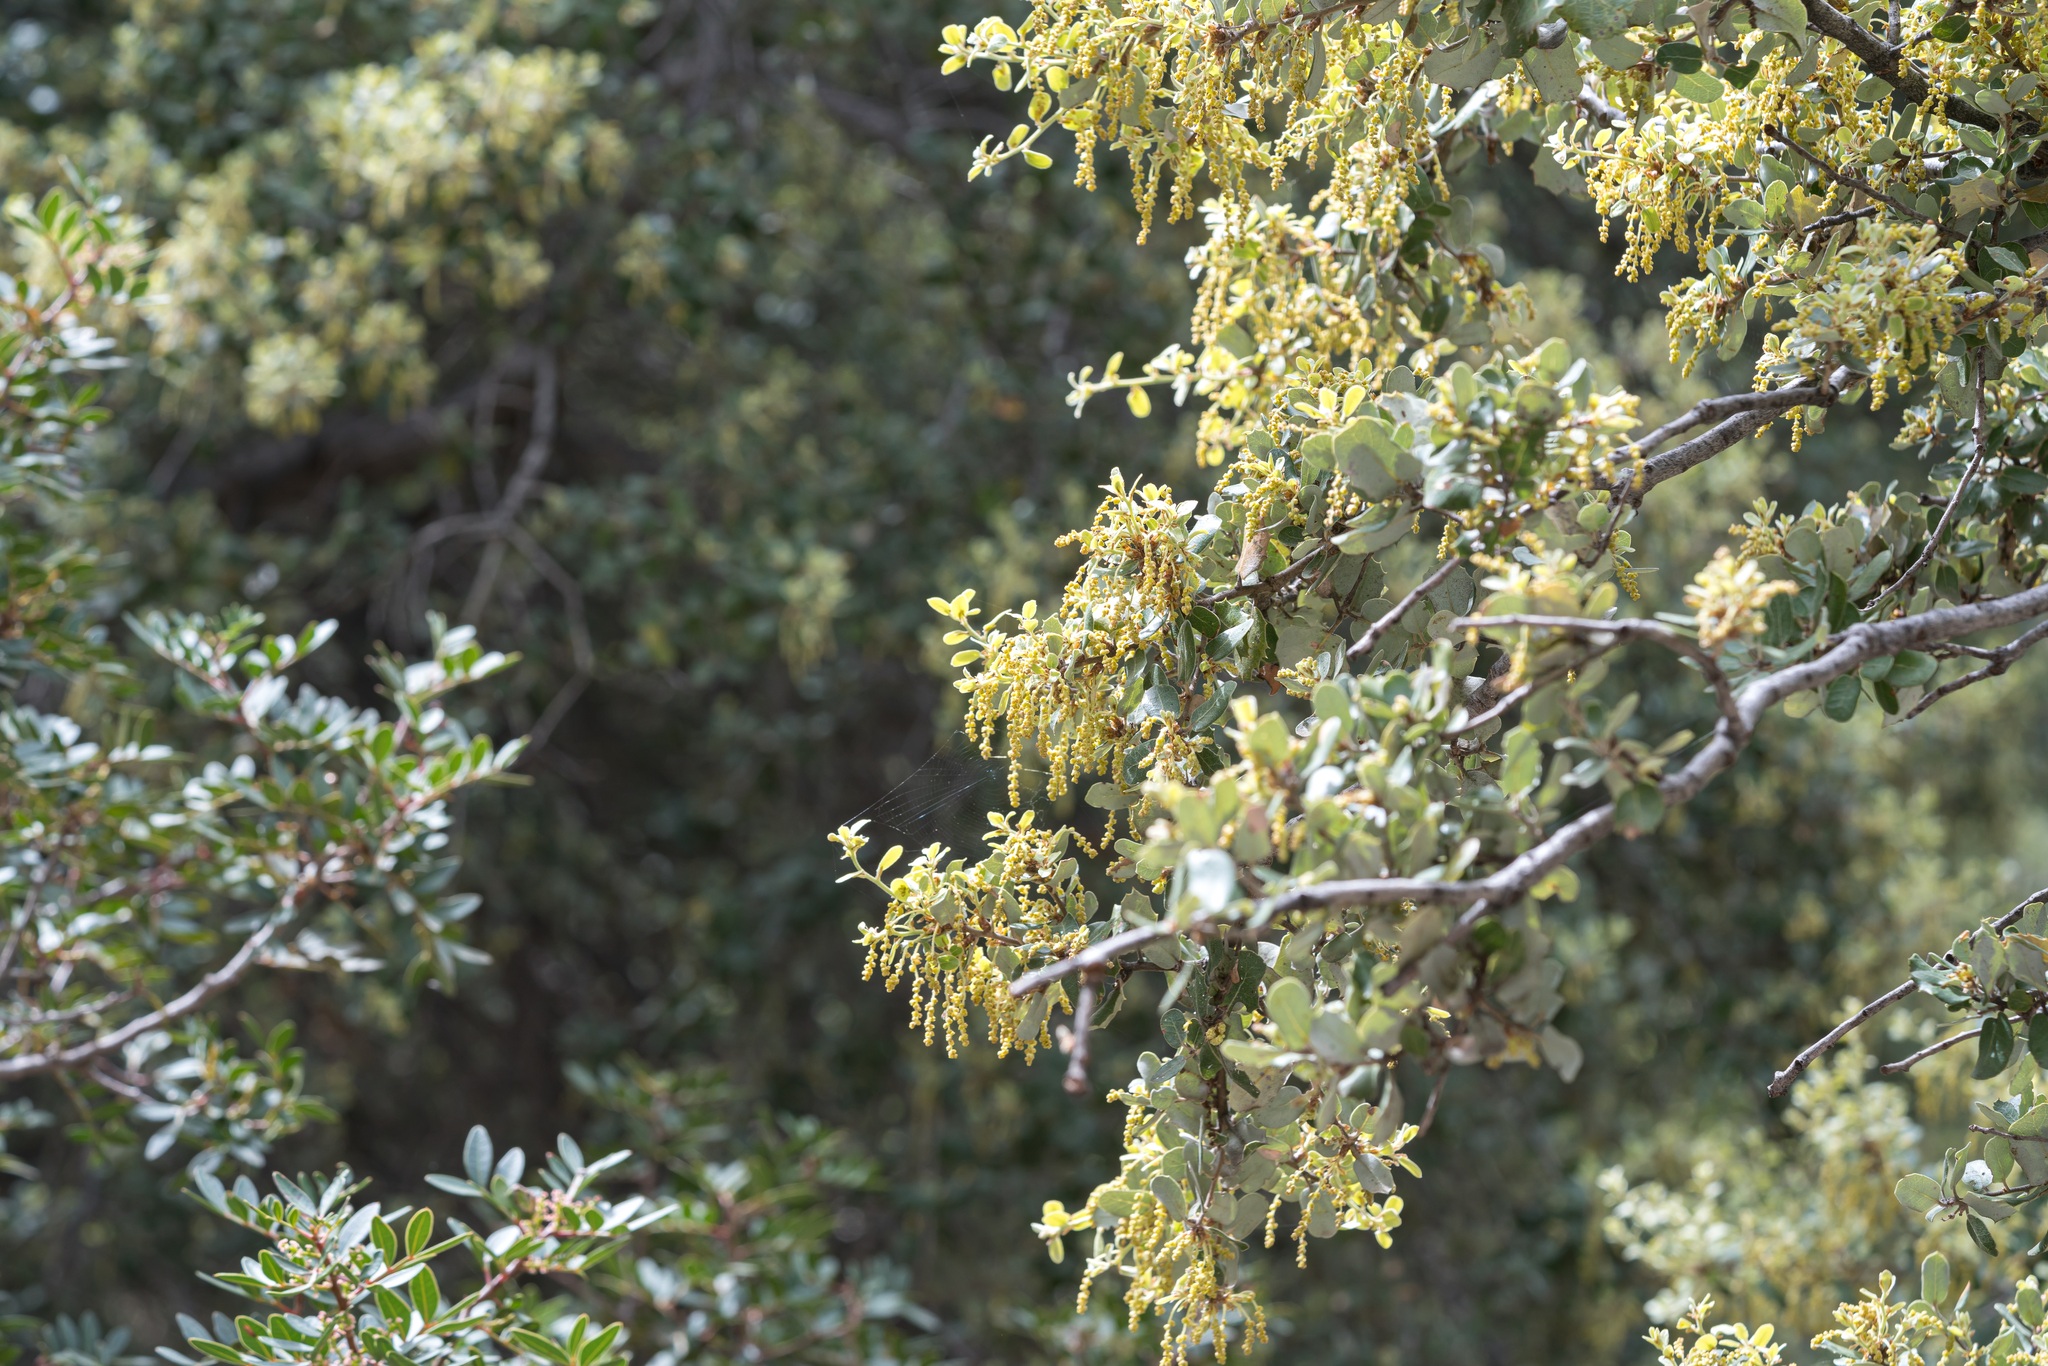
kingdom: Plantae
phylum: Tracheophyta
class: Magnoliopsida
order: Fagales
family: Fagaceae
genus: Quercus
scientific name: Quercus aucheri
